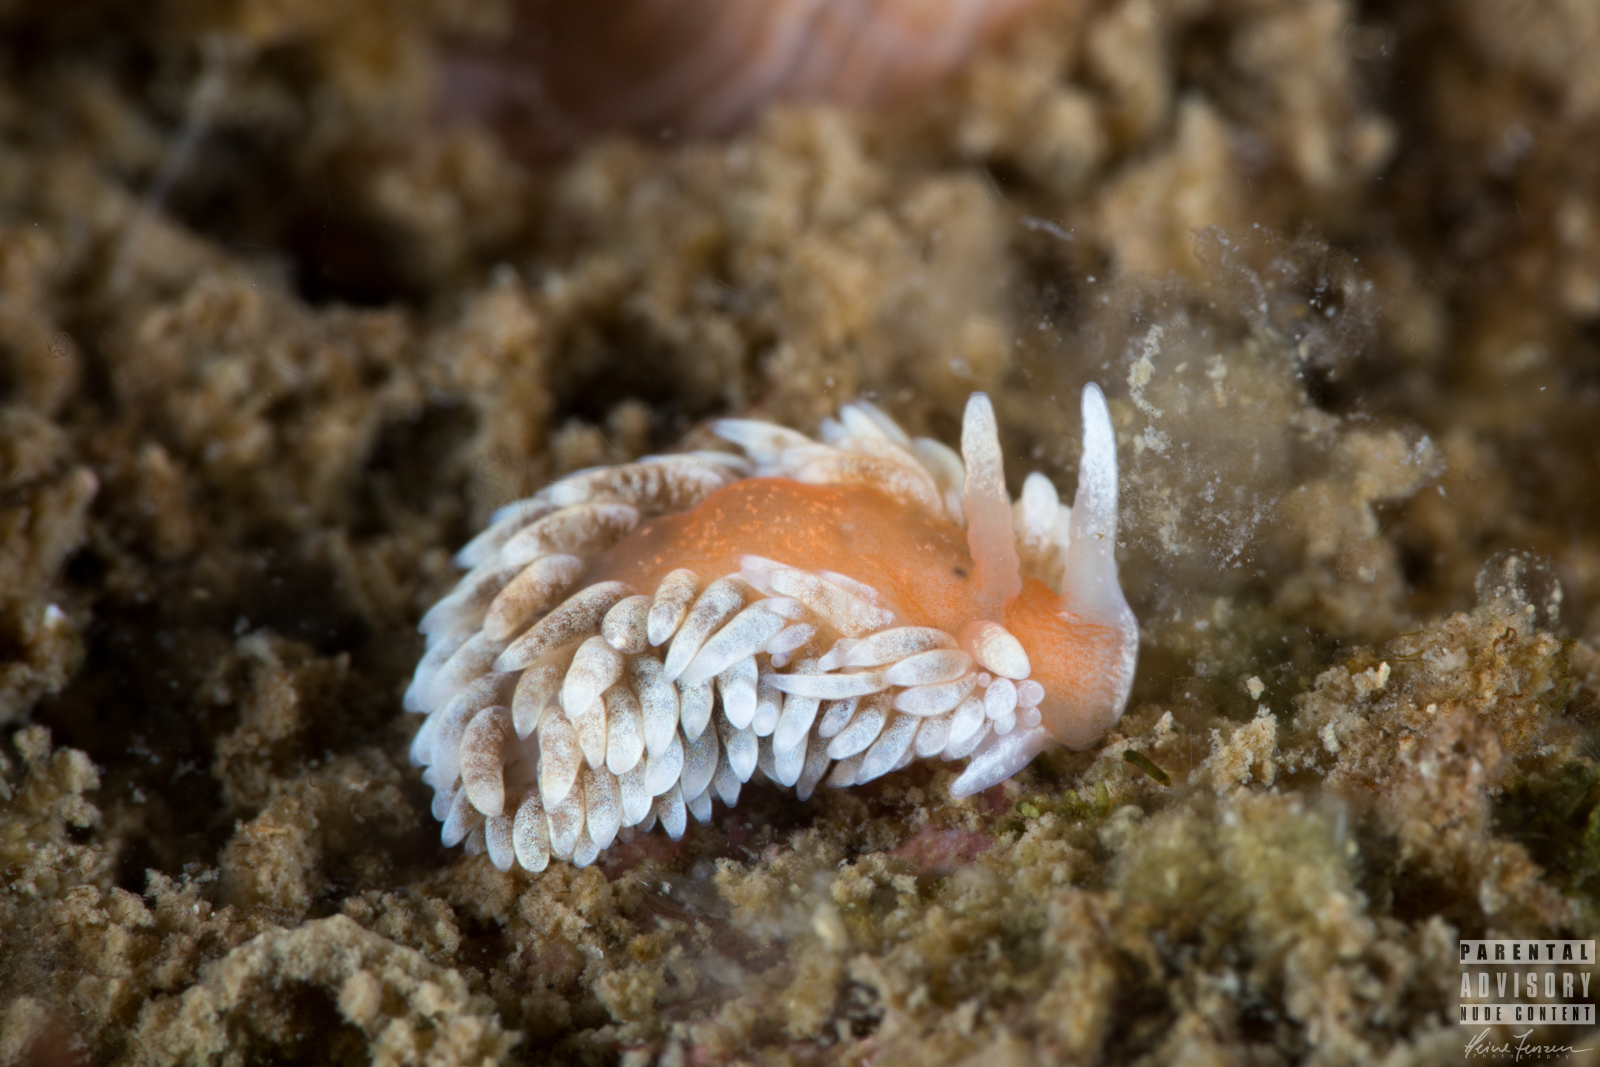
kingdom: Animalia
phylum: Mollusca
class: Gastropoda
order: Nudibranchia
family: Aeolidiidae
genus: Aeolidiella
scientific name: Aeolidiella glauca
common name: Orange-brown aeolid
